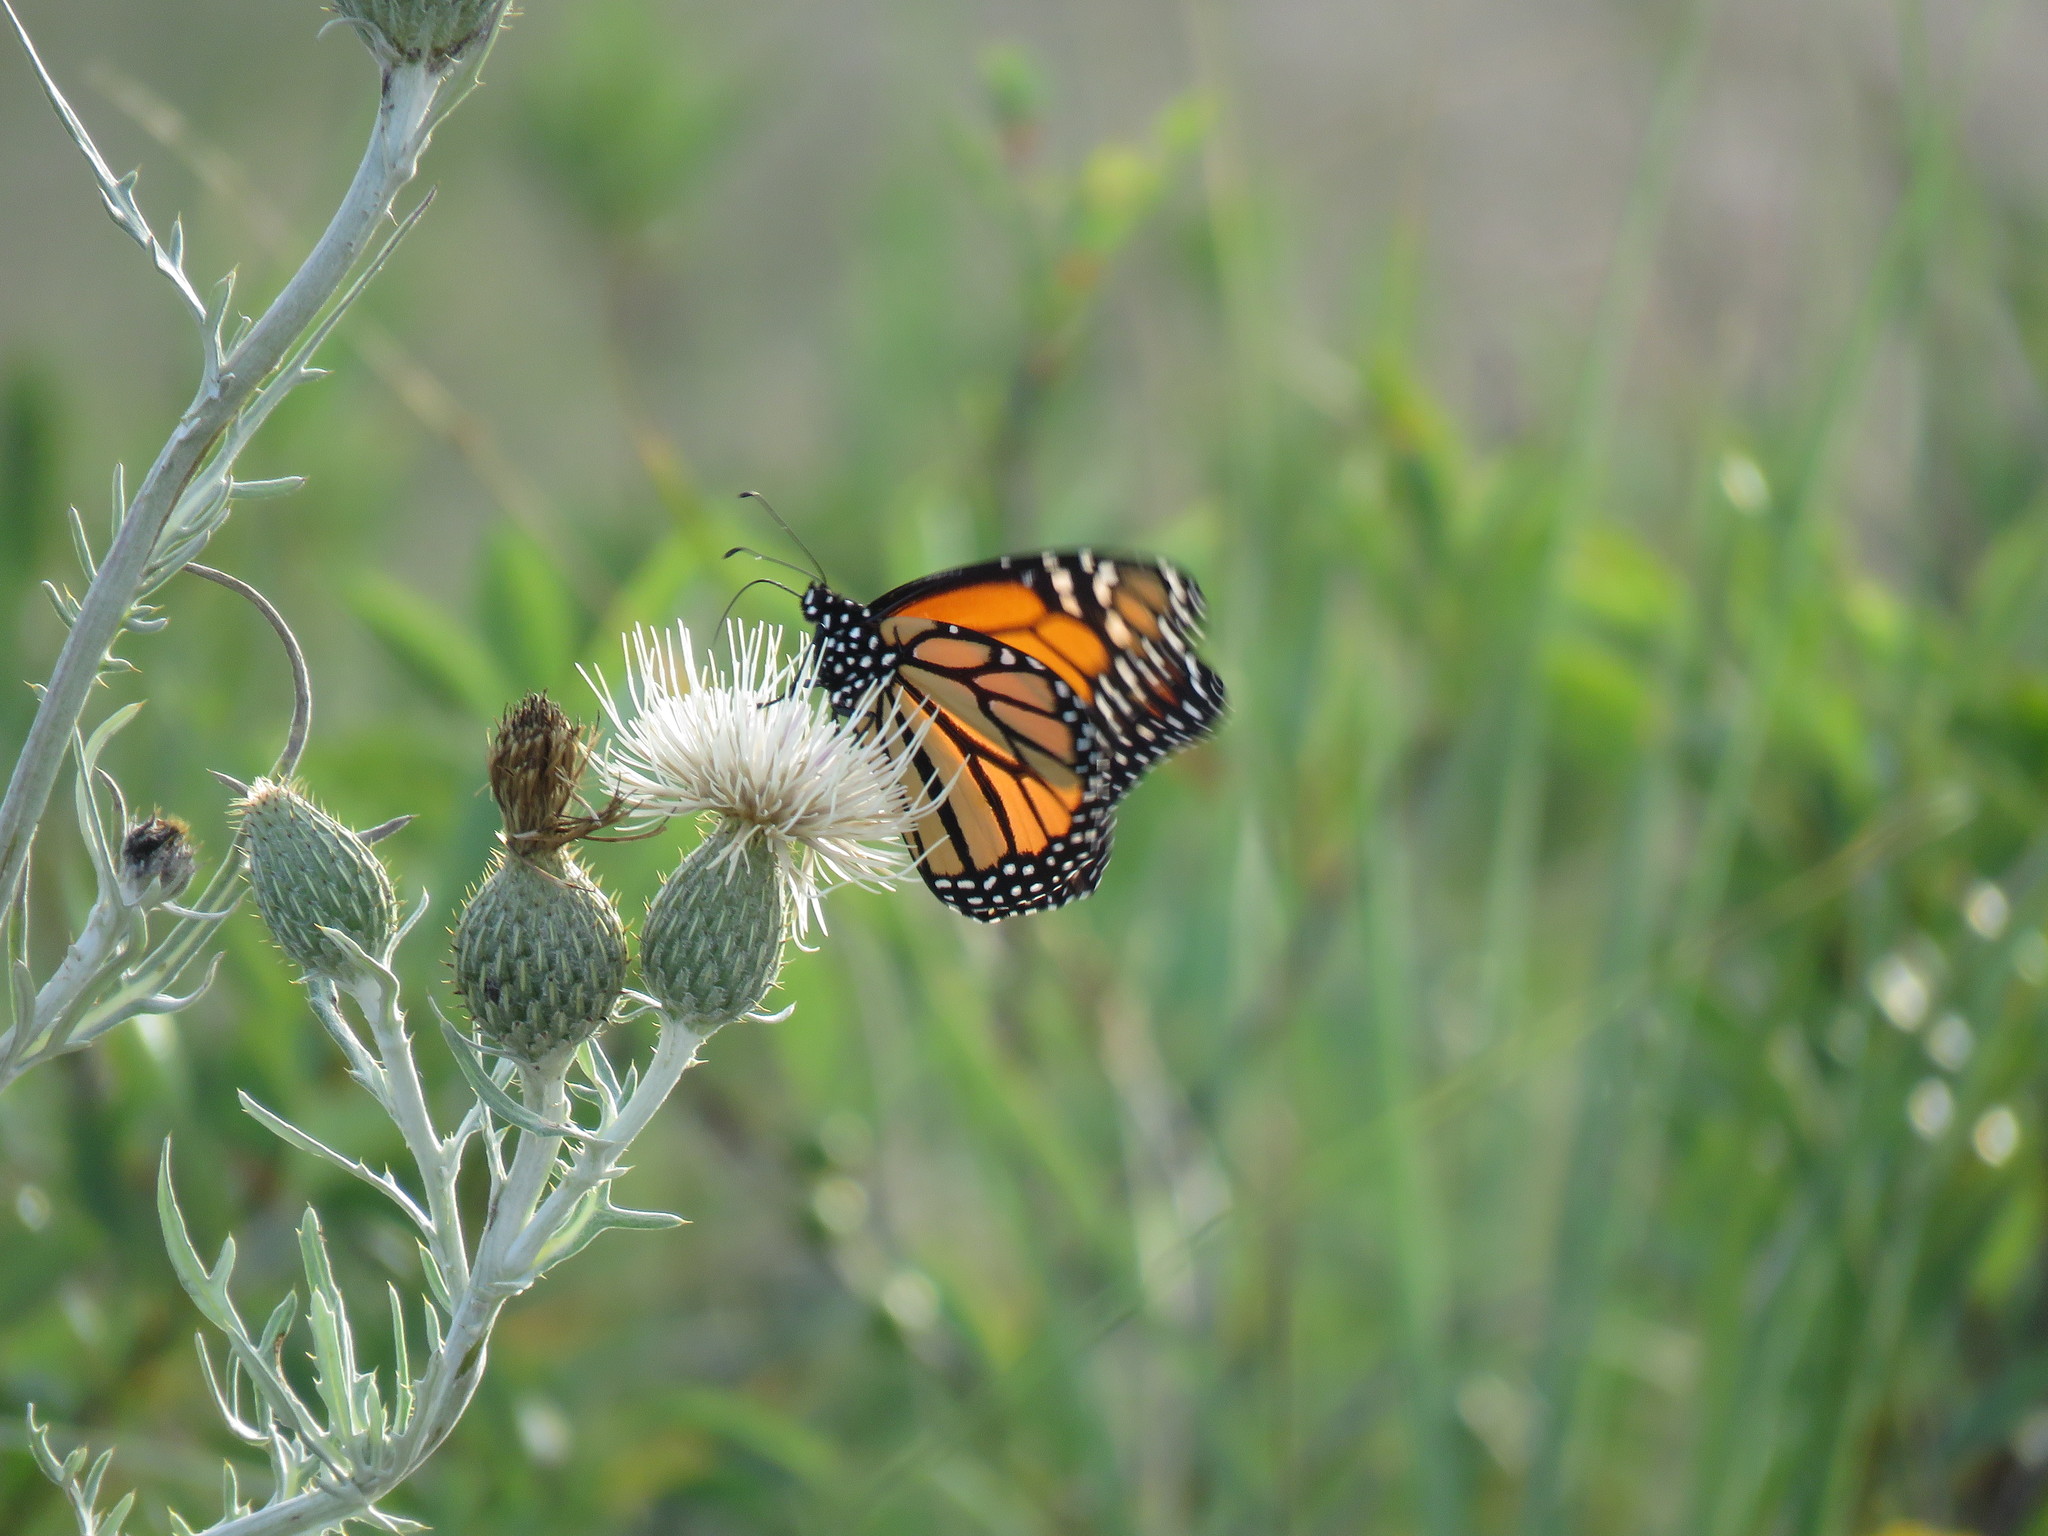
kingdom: Animalia
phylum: Arthropoda
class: Insecta
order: Lepidoptera
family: Nymphalidae
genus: Danaus
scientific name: Danaus plexippus
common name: Monarch
